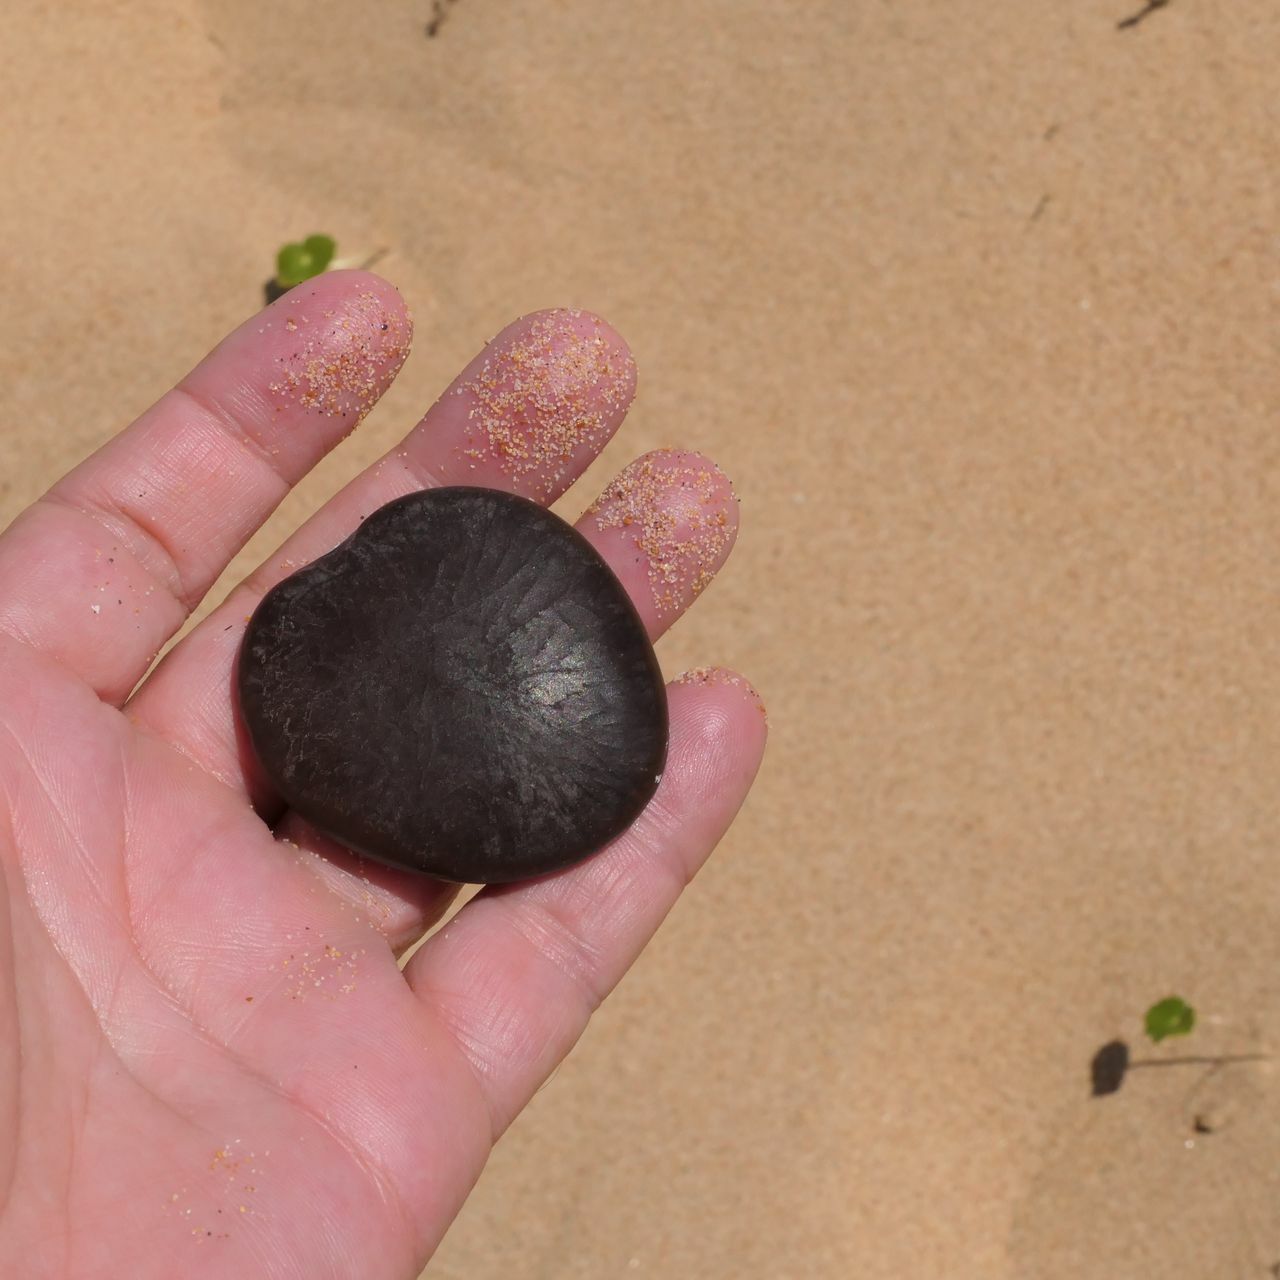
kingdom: Plantae
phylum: Tracheophyta
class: Magnoliopsida
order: Fabales
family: Fabaceae
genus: Entada
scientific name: Entada phaseoloides
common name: Matchbox-bean
